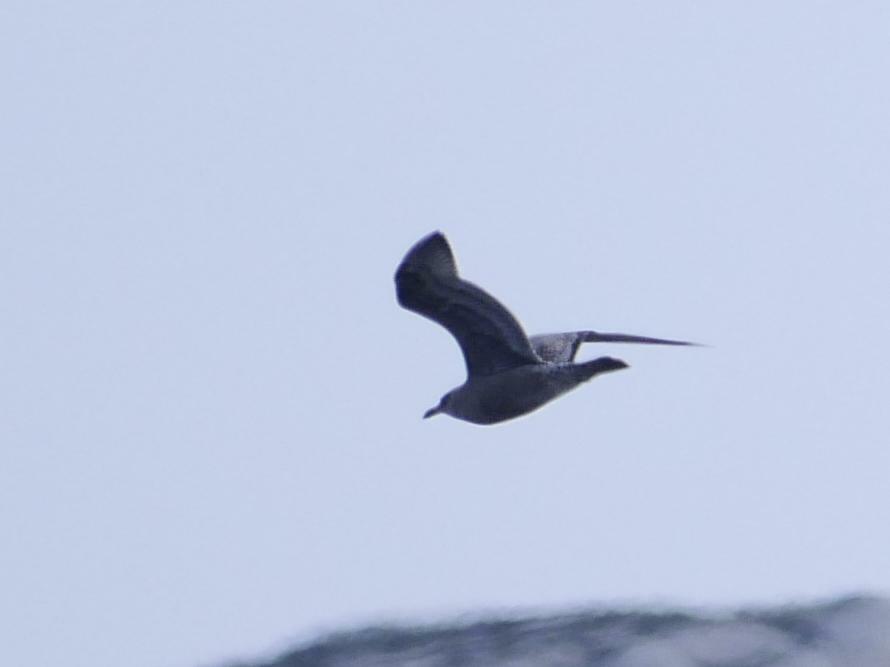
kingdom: Animalia
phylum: Chordata
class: Aves
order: Charadriiformes
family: Laridae
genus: Larus
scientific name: Larus argentatus
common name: Herring gull
